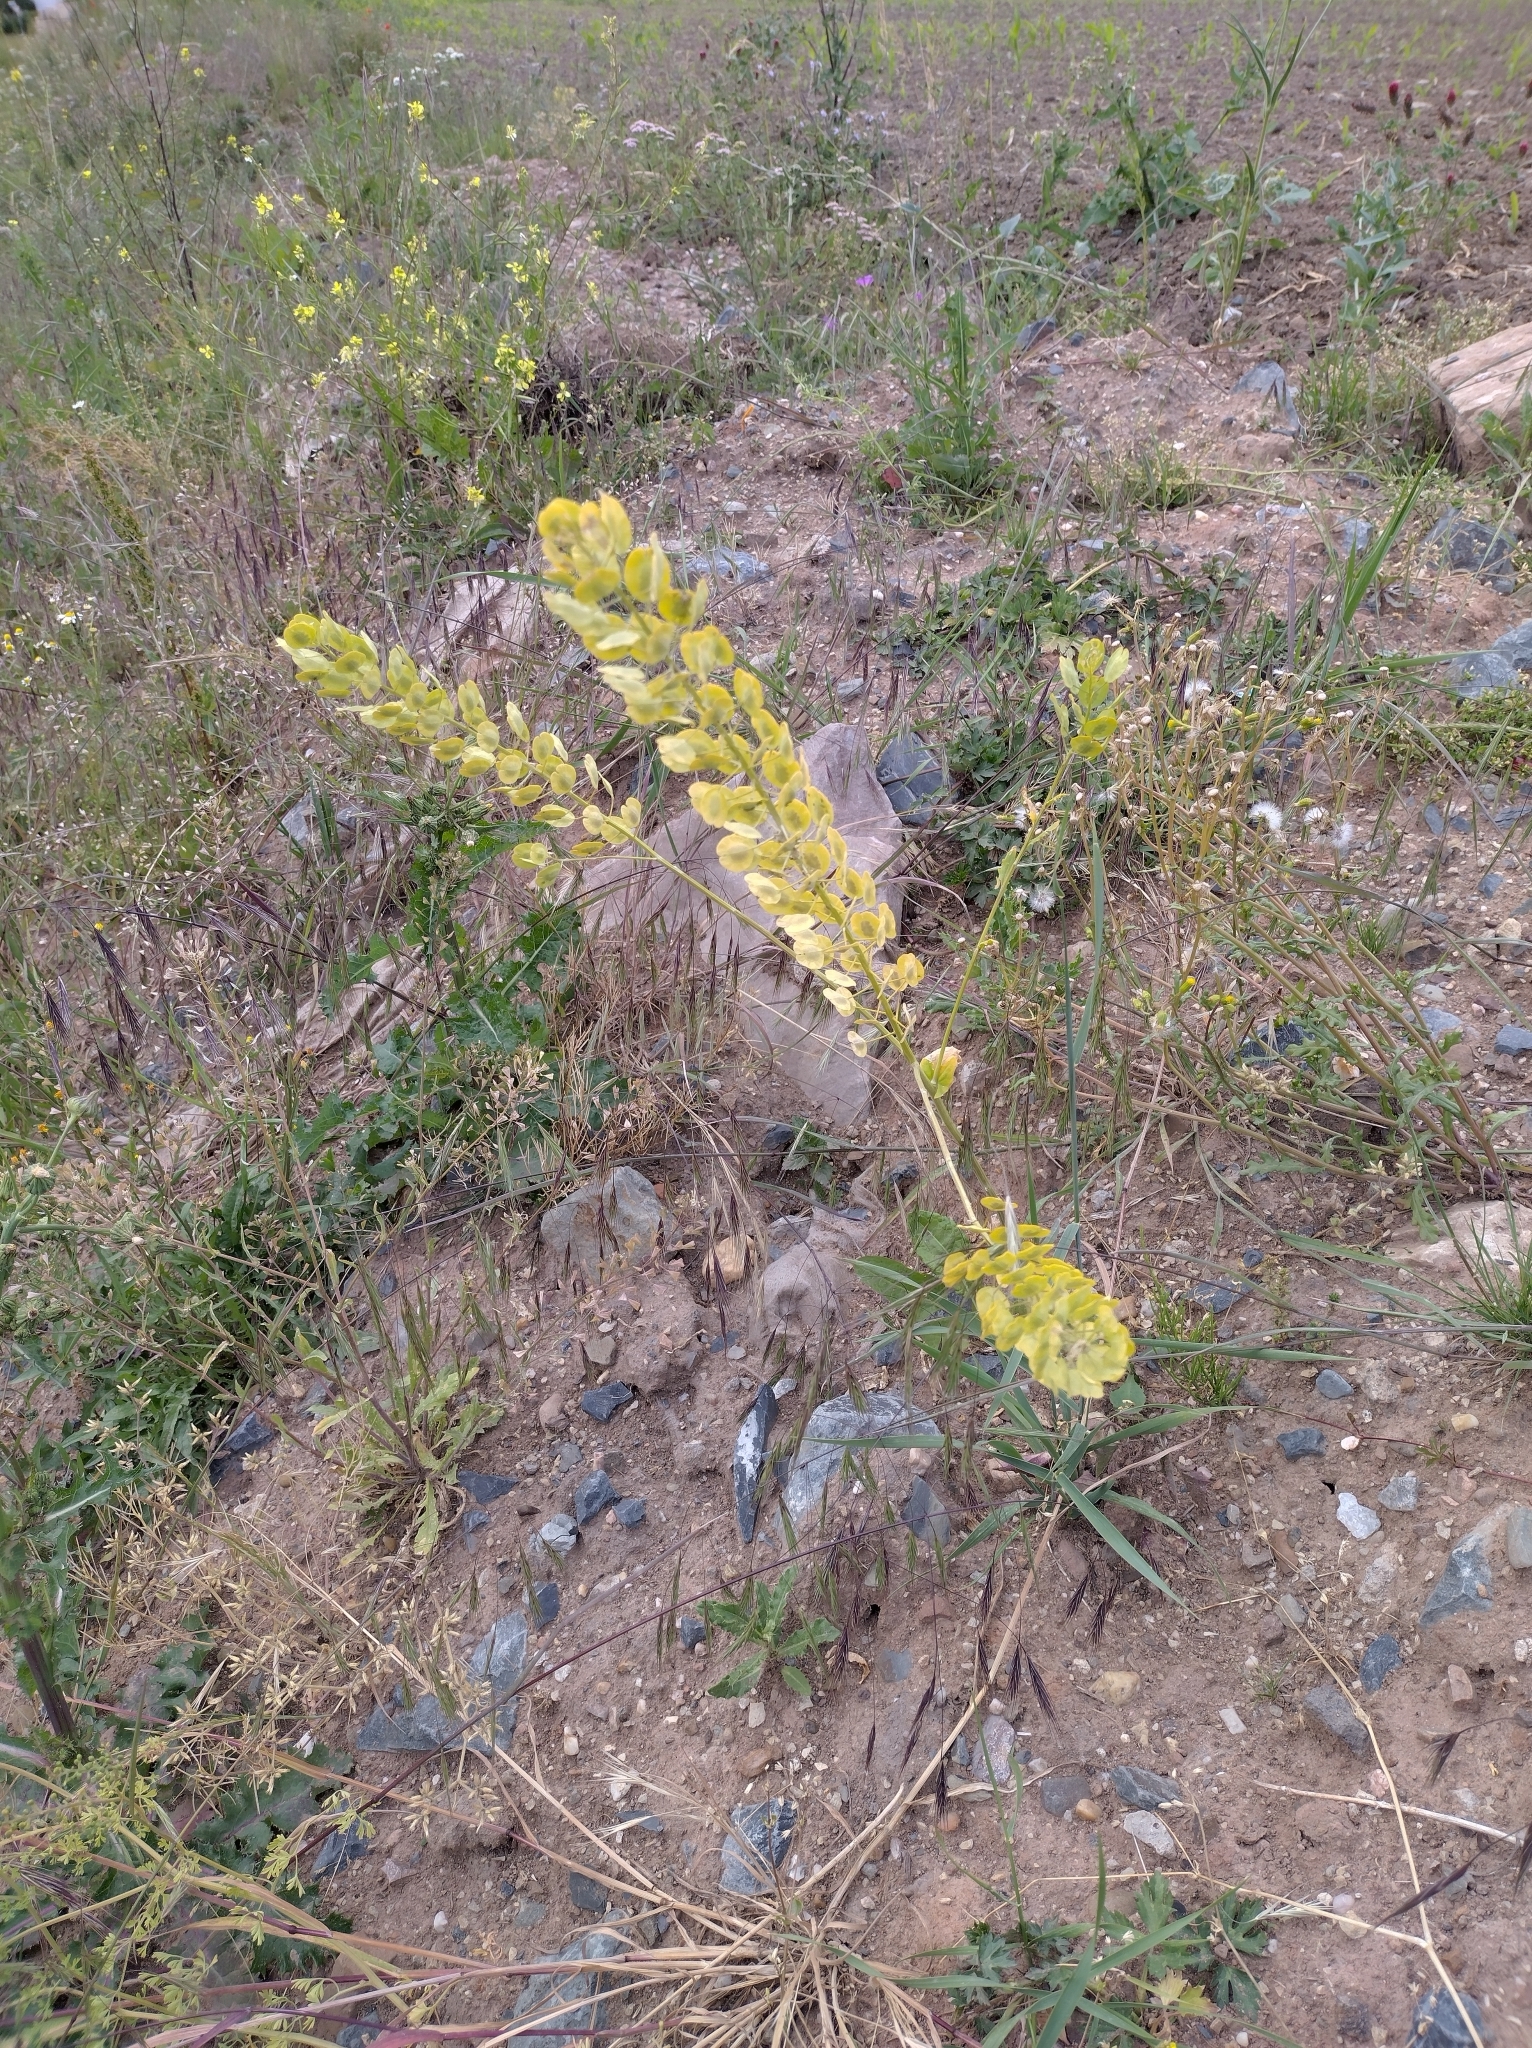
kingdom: Plantae
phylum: Tracheophyta
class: Magnoliopsida
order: Brassicales
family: Brassicaceae
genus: Thlaspi
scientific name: Thlaspi arvense
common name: Field pennycress
